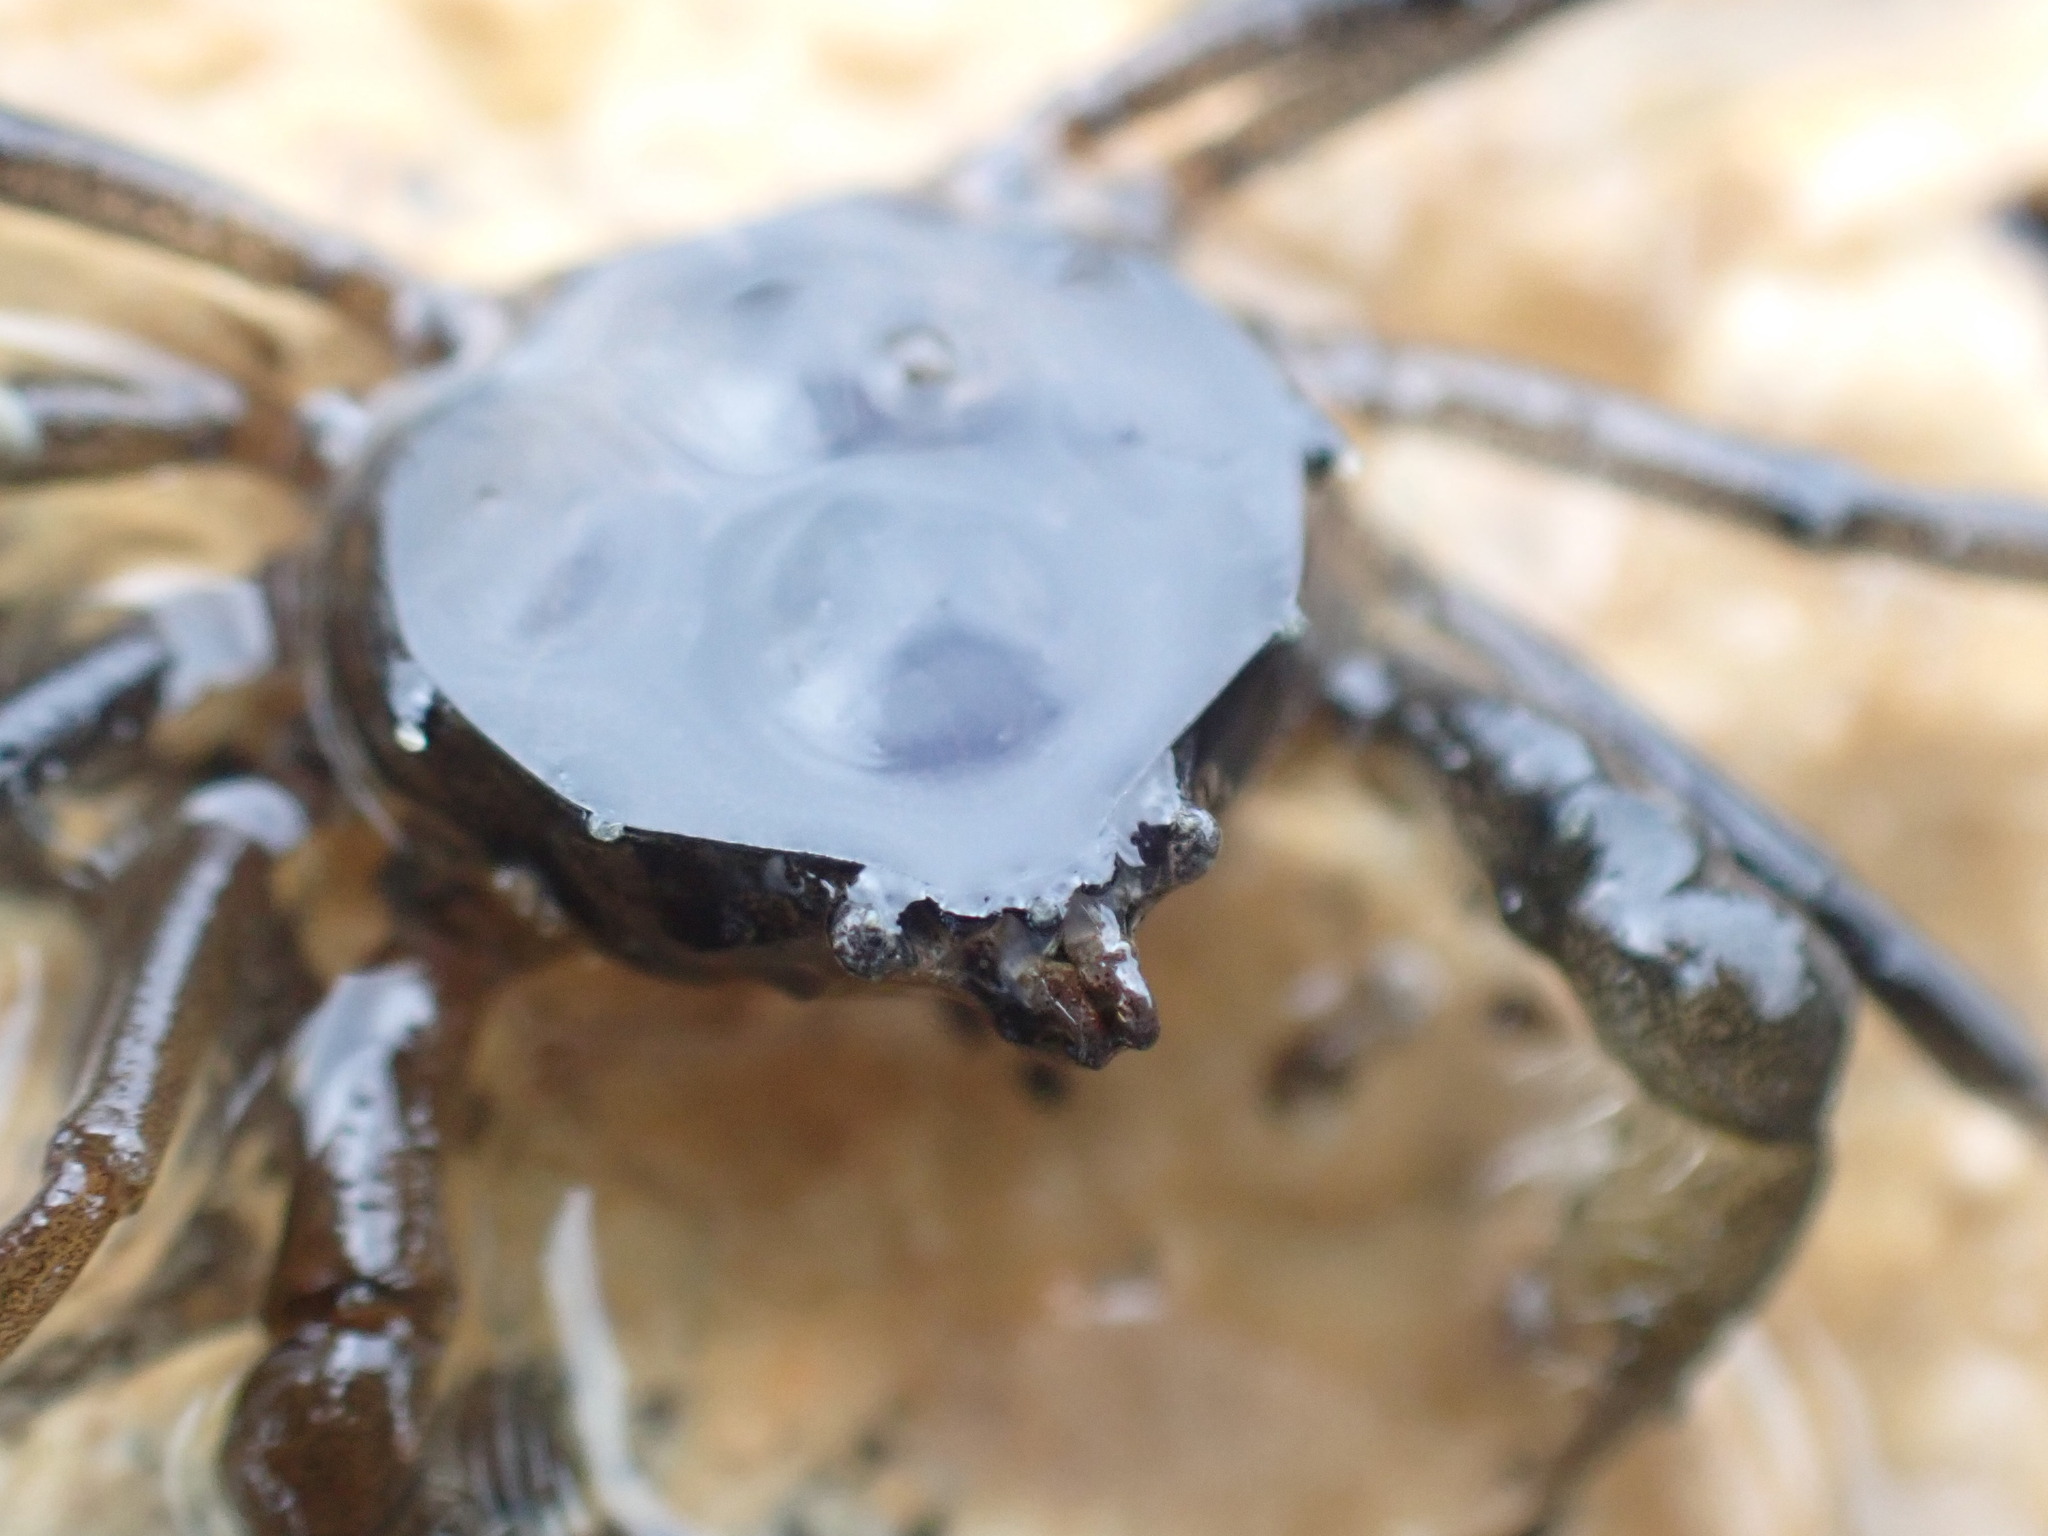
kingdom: Animalia
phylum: Arthropoda
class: Malacostraca
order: Decapoda
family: Hymenosomatidae
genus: Halicarcinus
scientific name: Halicarcinus cookii
